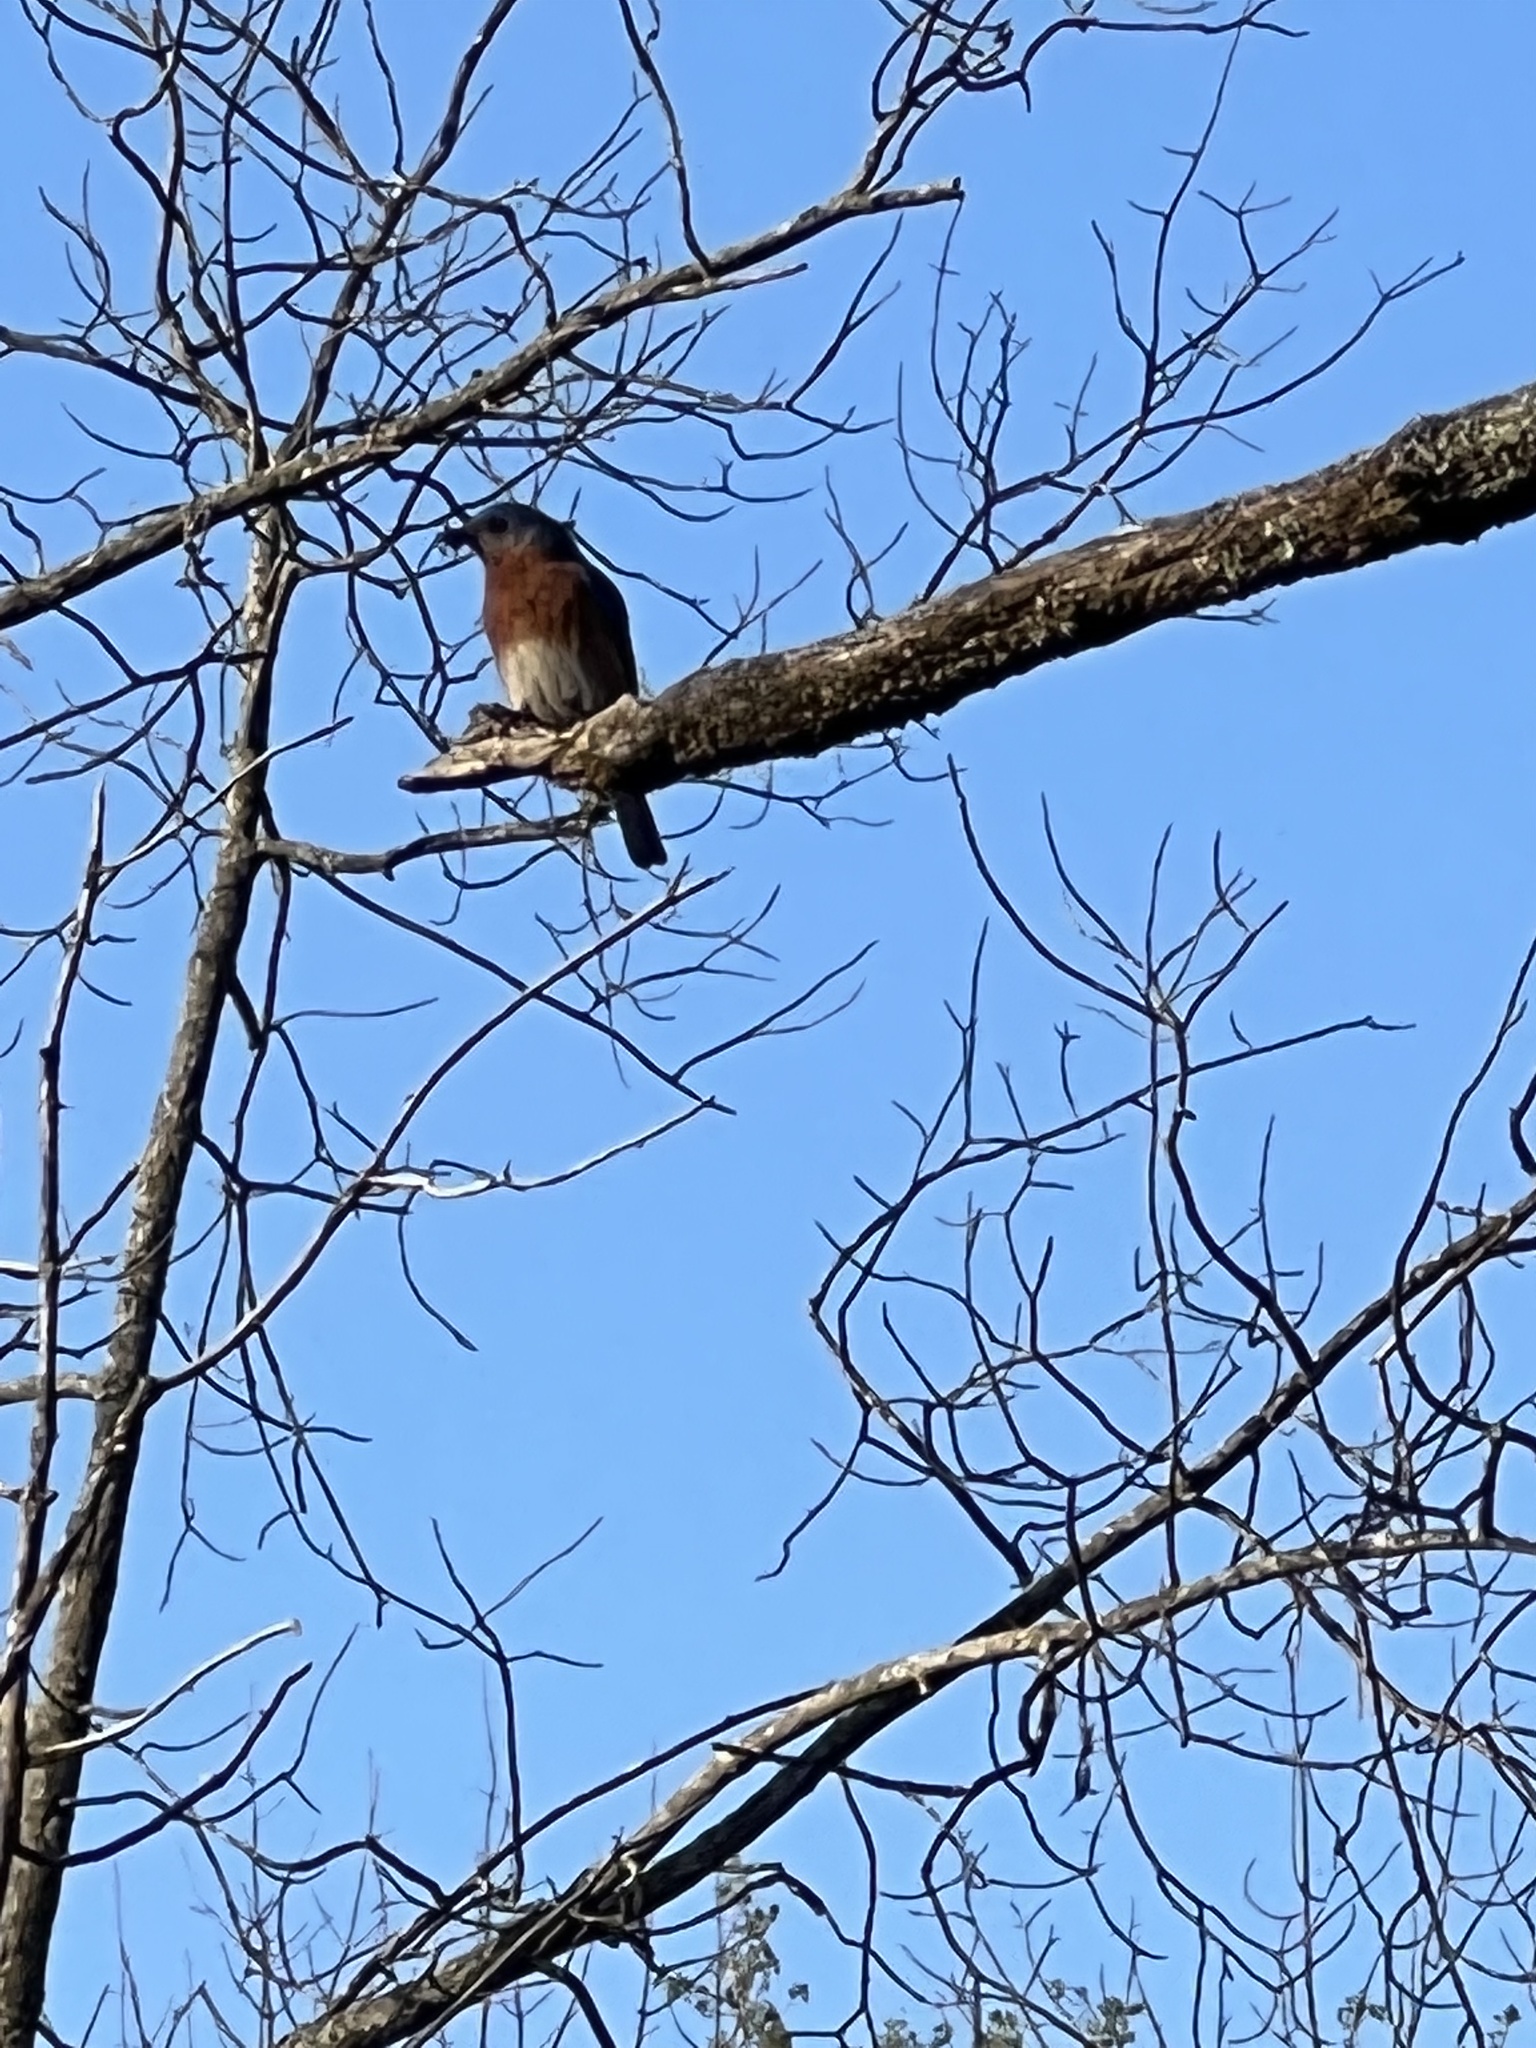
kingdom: Animalia
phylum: Chordata
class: Aves
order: Passeriformes
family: Turdidae
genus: Sialia
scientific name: Sialia sialis
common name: Eastern bluebird
